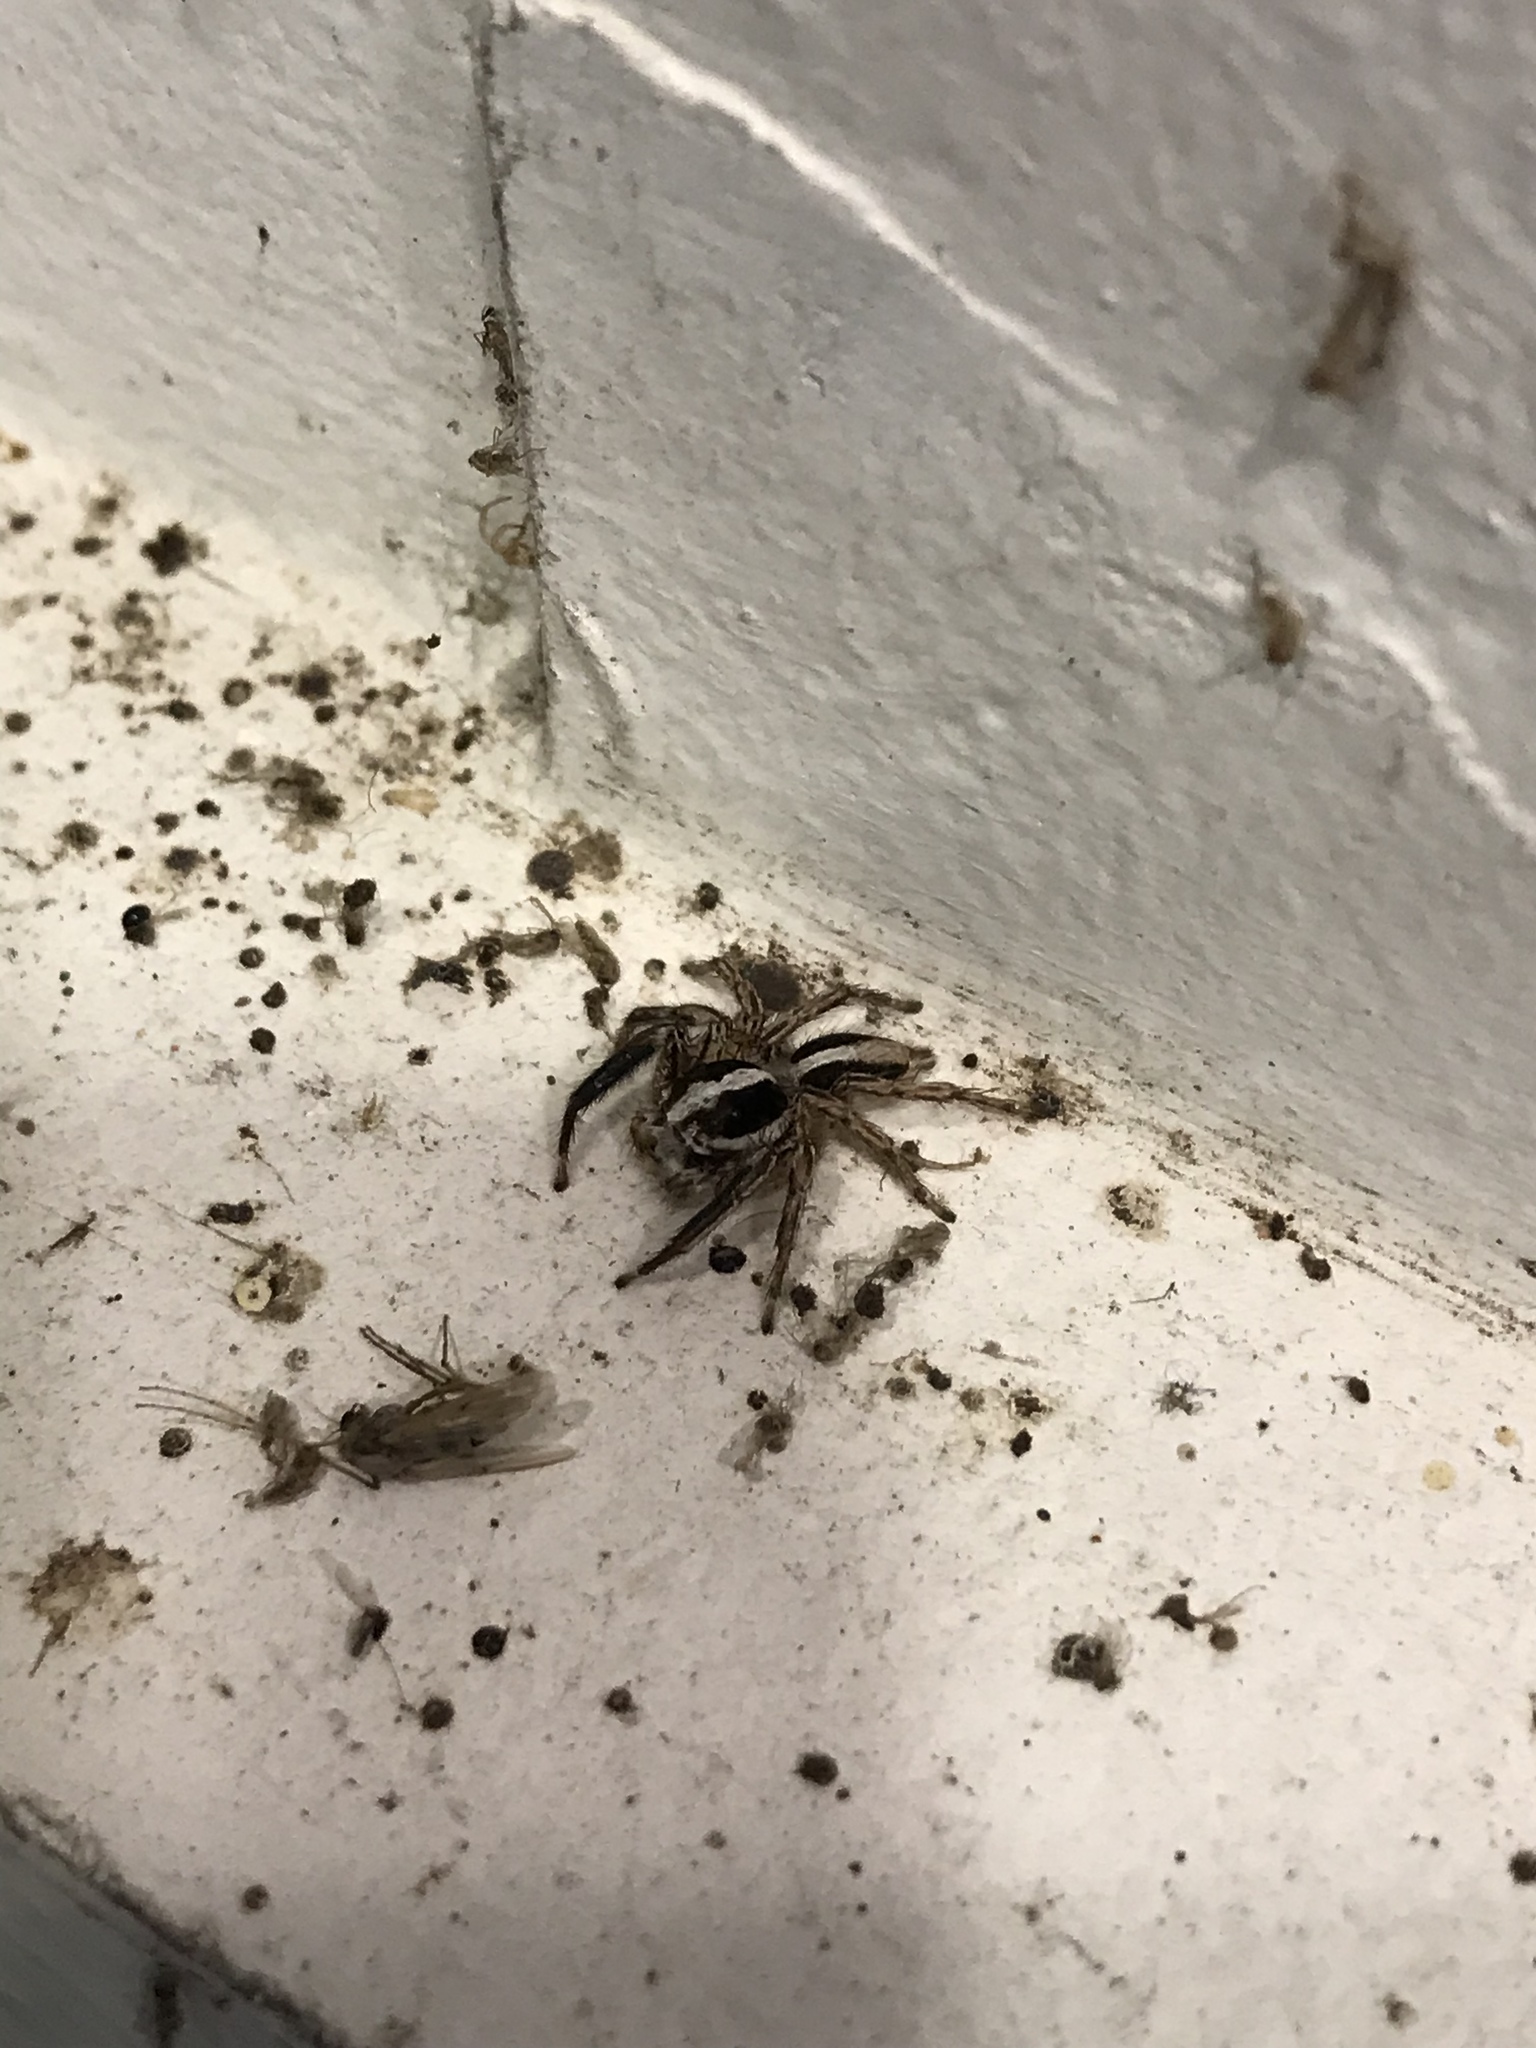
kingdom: Animalia
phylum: Arthropoda
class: Arachnida
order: Araneae
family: Salticidae
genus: Plexippus
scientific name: Plexippus paykulli
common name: Pantropical jumper
